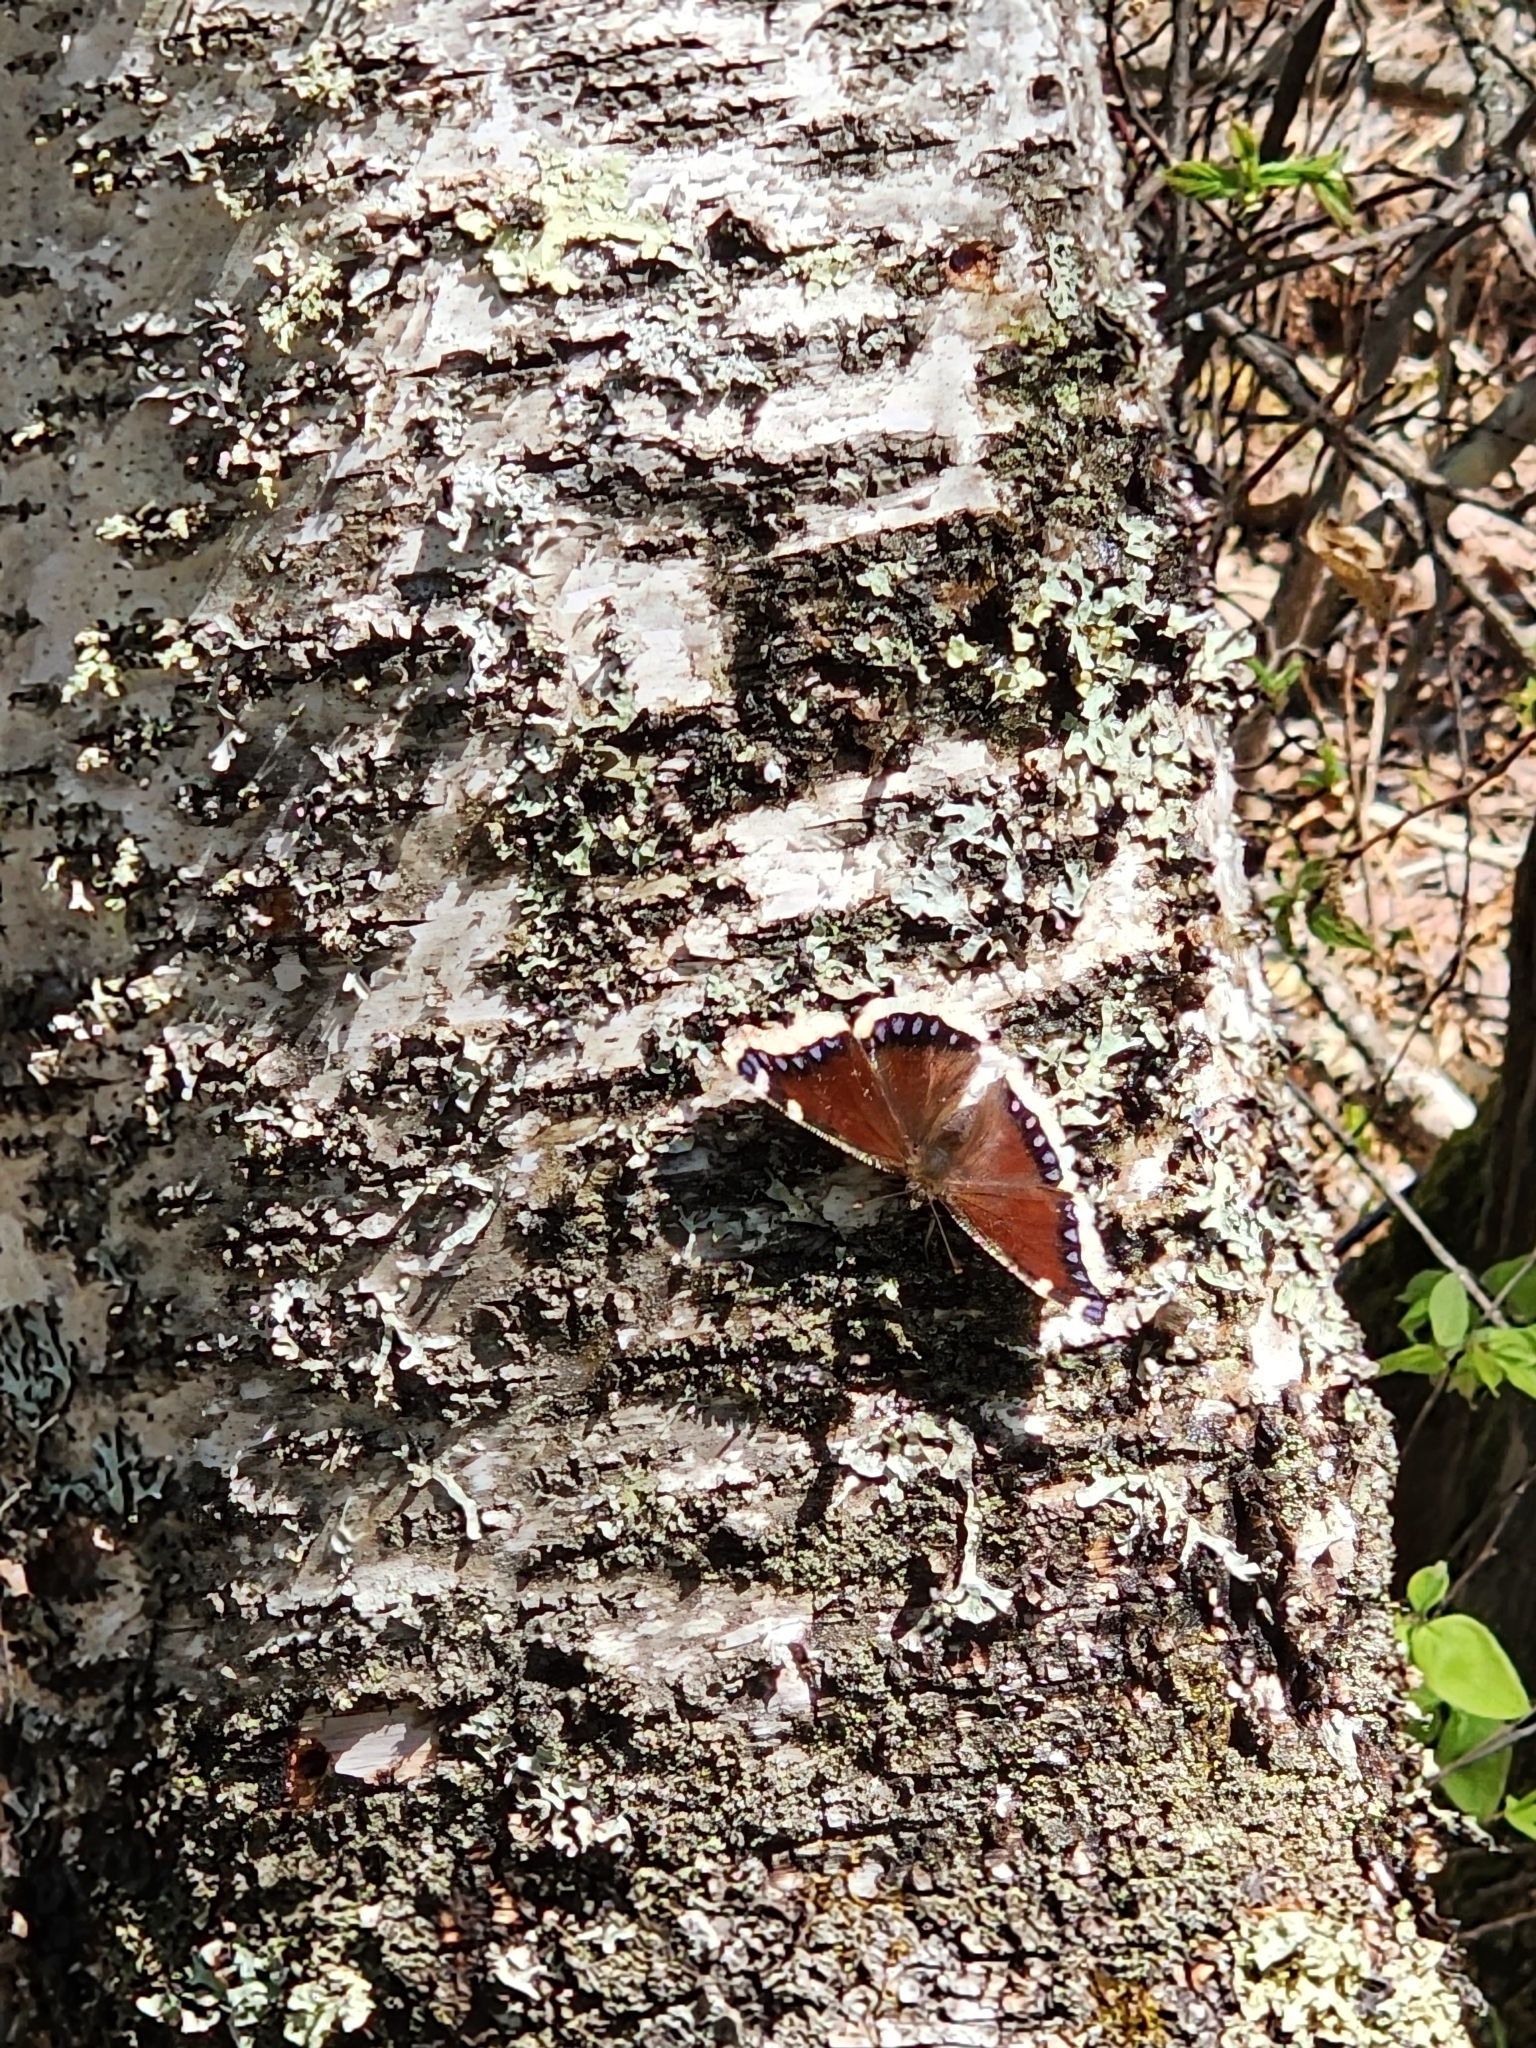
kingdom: Animalia
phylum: Arthropoda
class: Insecta
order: Lepidoptera
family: Nymphalidae
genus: Nymphalis
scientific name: Nymphalis antiopa
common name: Camberwell beauty
